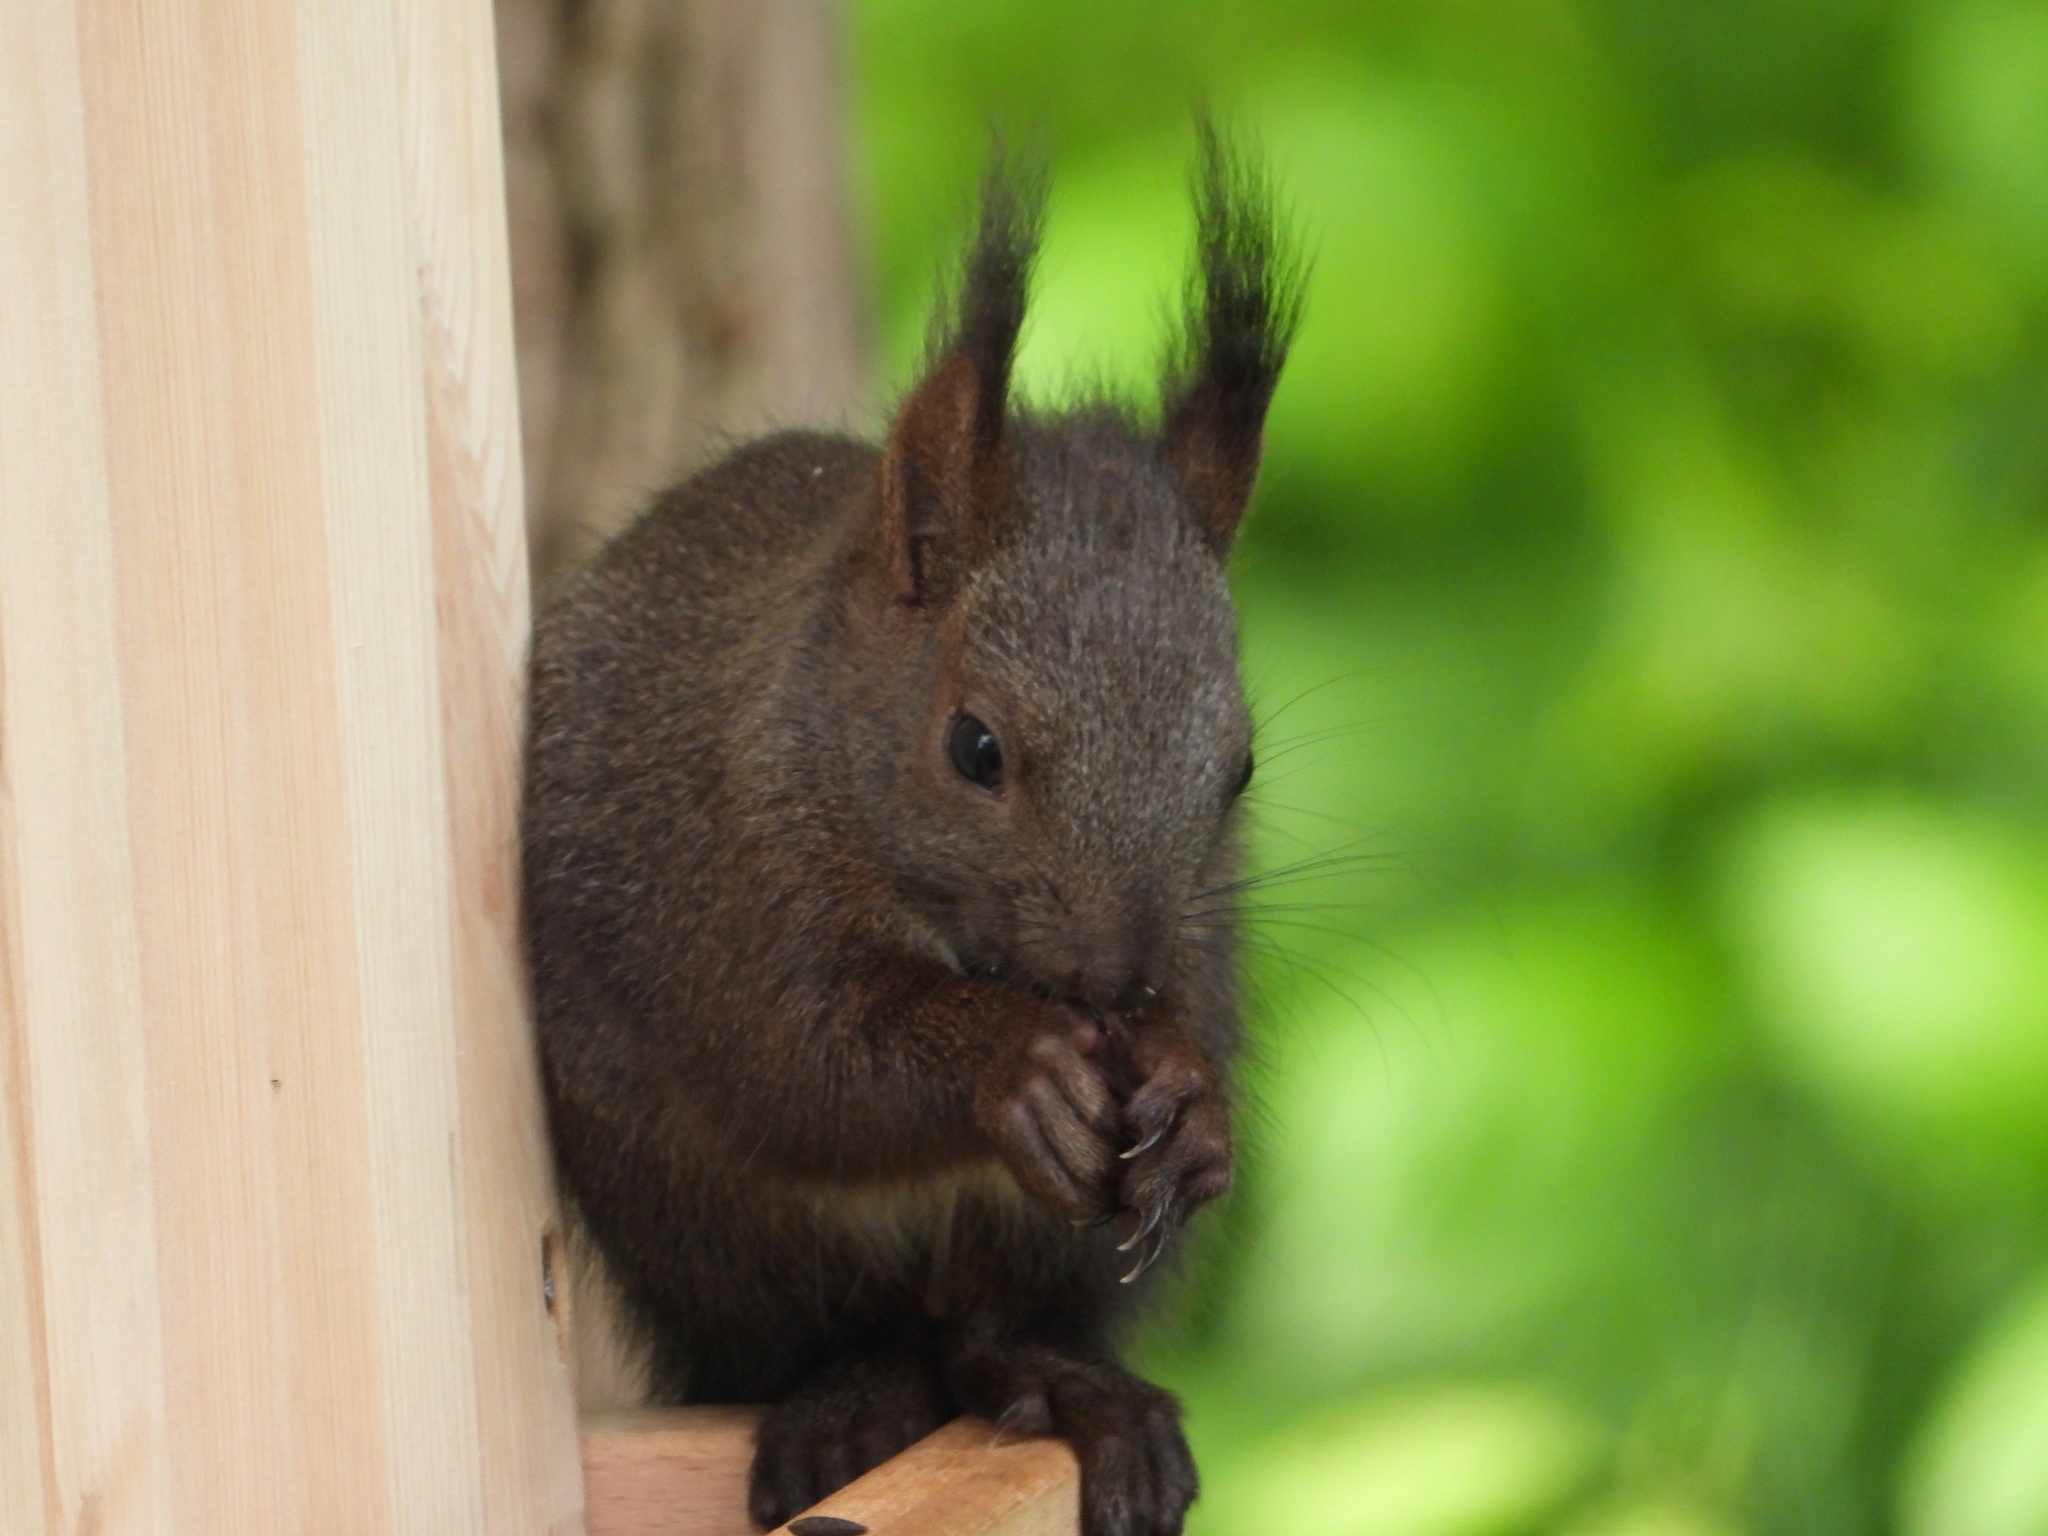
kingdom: Animalia
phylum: Chordata
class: Mammalia
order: Rodentia
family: Sciuridae
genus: Sciurus
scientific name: Sciurus vulgaris
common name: Eurasian red squirrel
